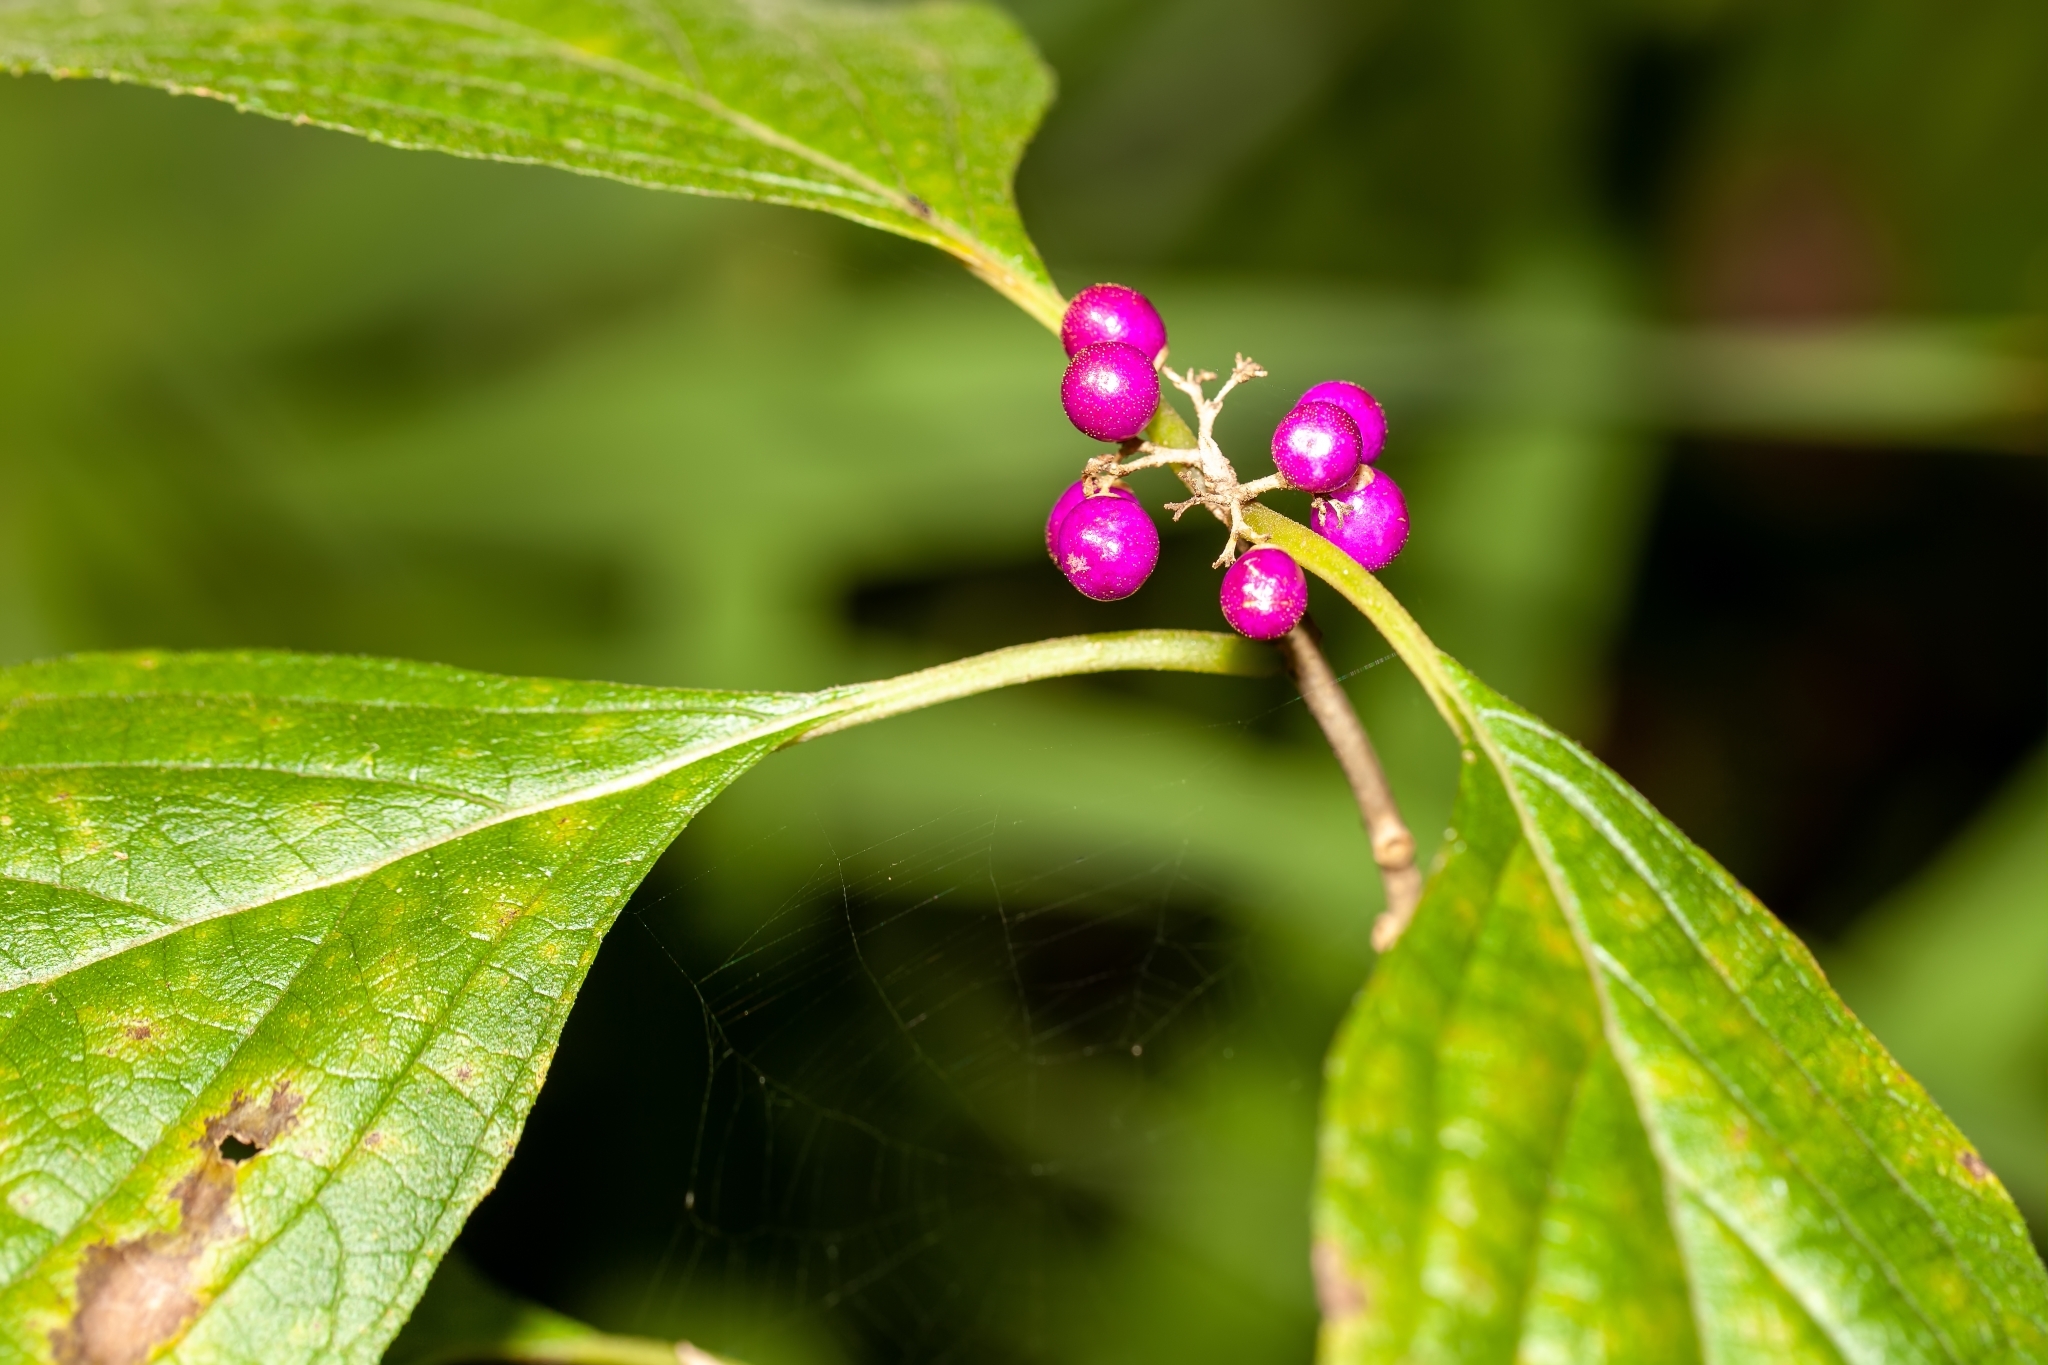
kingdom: Plantae
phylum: Tracheophyta
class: Magnoliopsida
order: Lamiales
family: Lamiaceae
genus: Callicarpa
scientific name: Callicarpa americana
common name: American beautyberry
